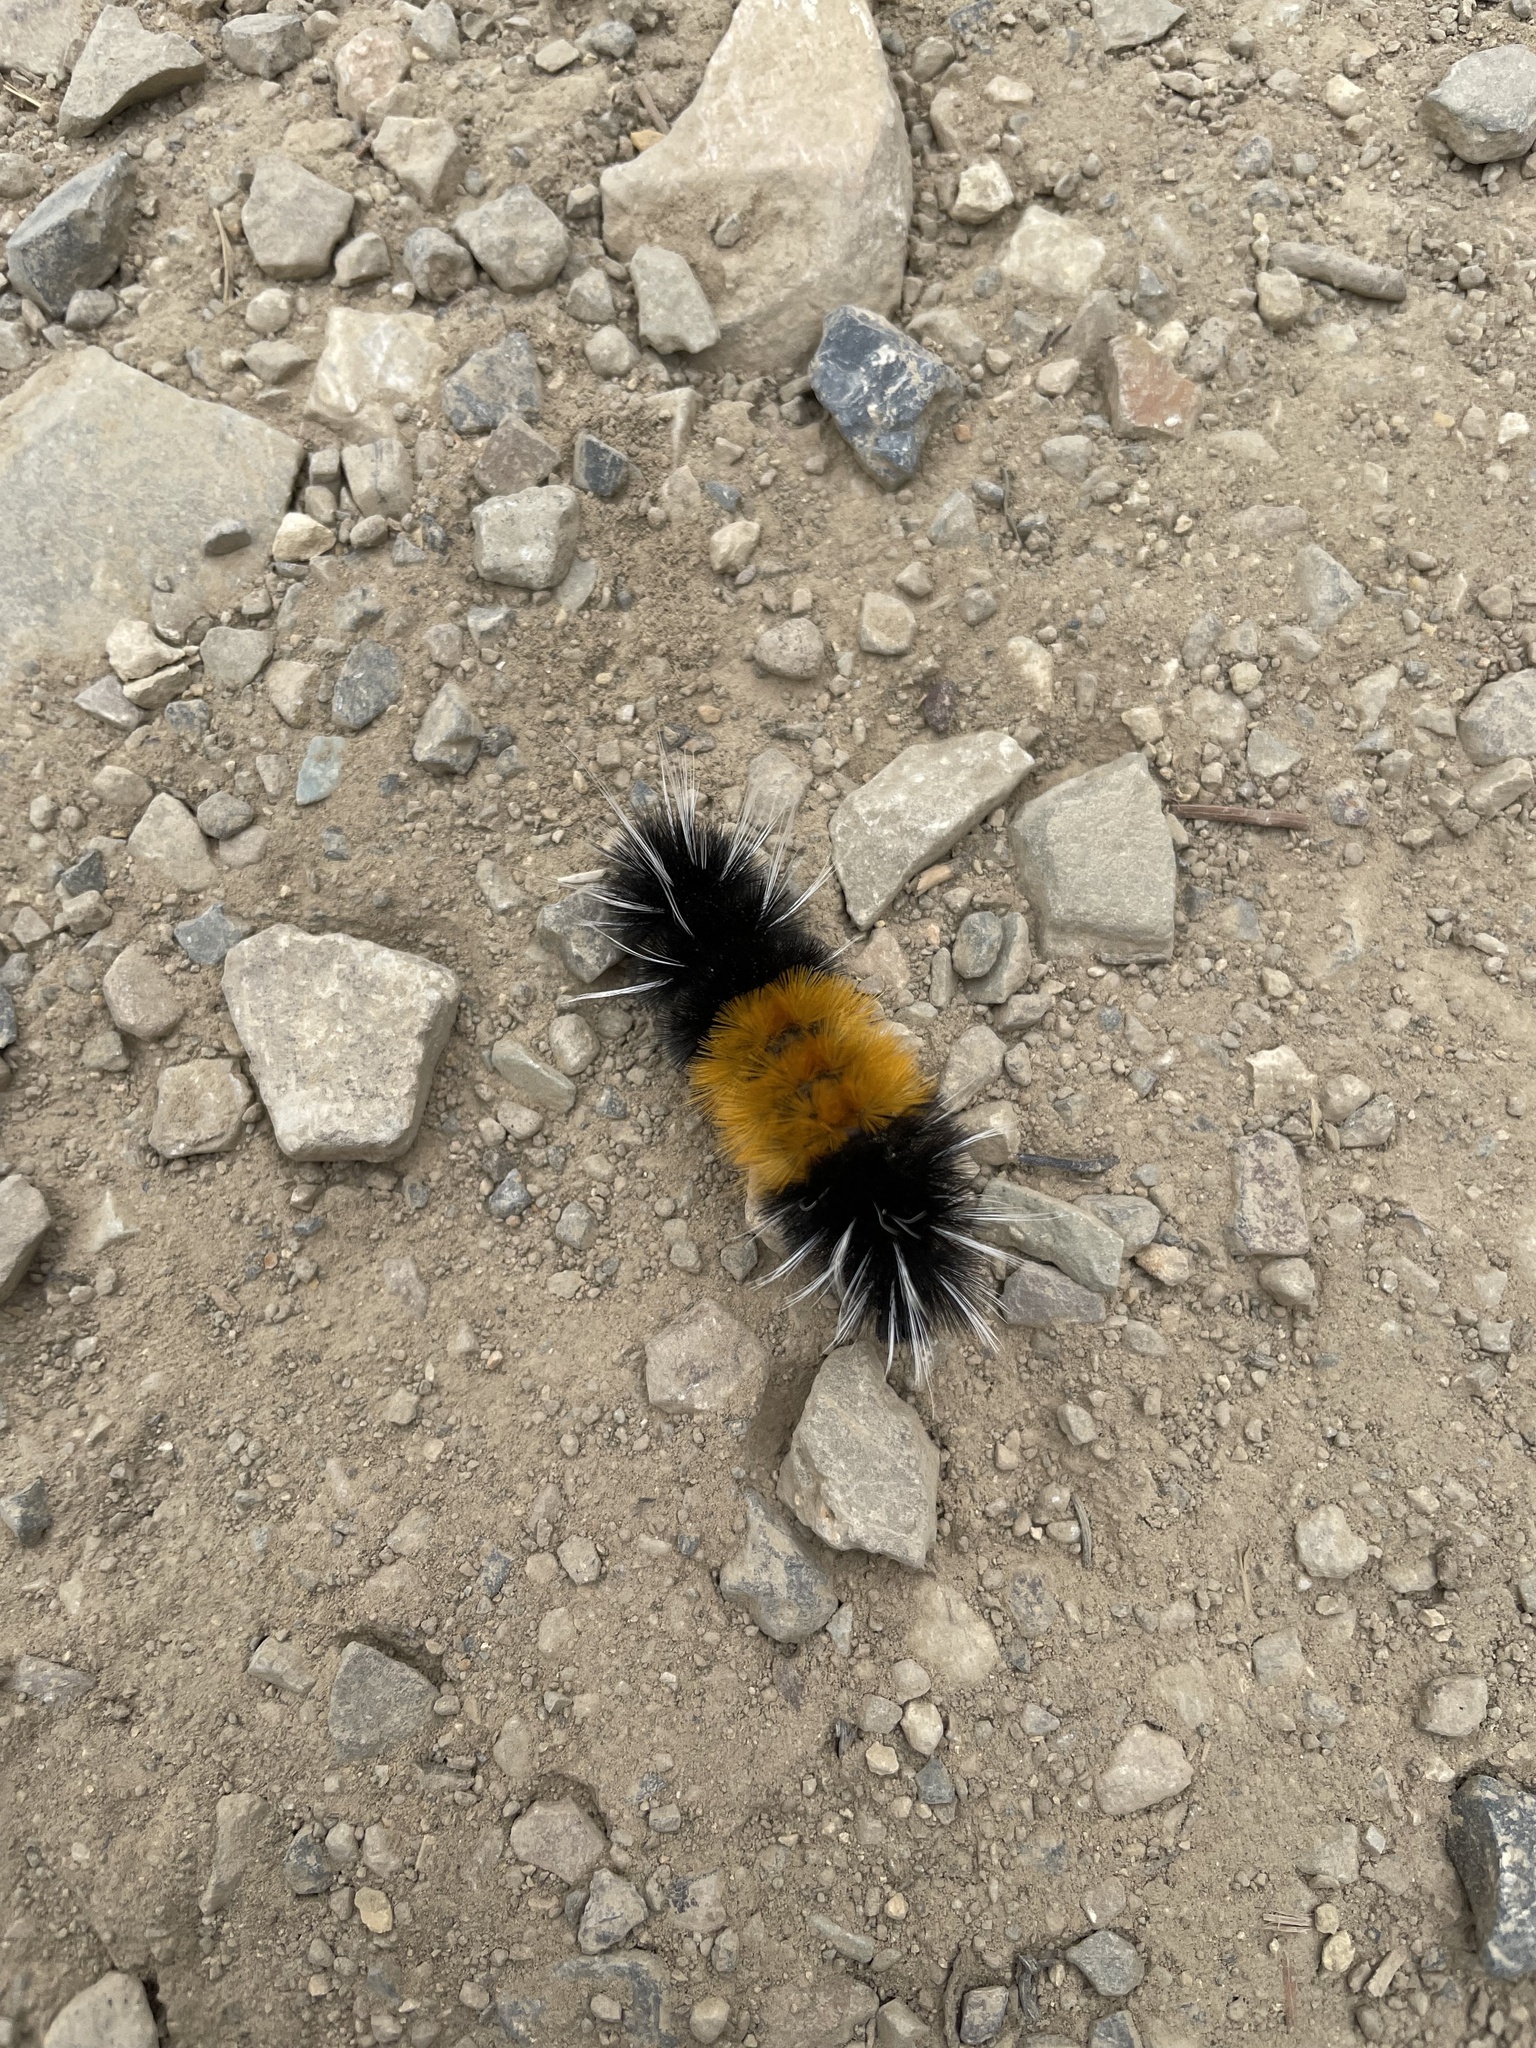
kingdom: Animalia
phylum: Arthropoda
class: Insecta
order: Lepidoptera
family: Erebidae
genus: Lophocampa
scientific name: Lophocampa maculata
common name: Spotted tussock moth
